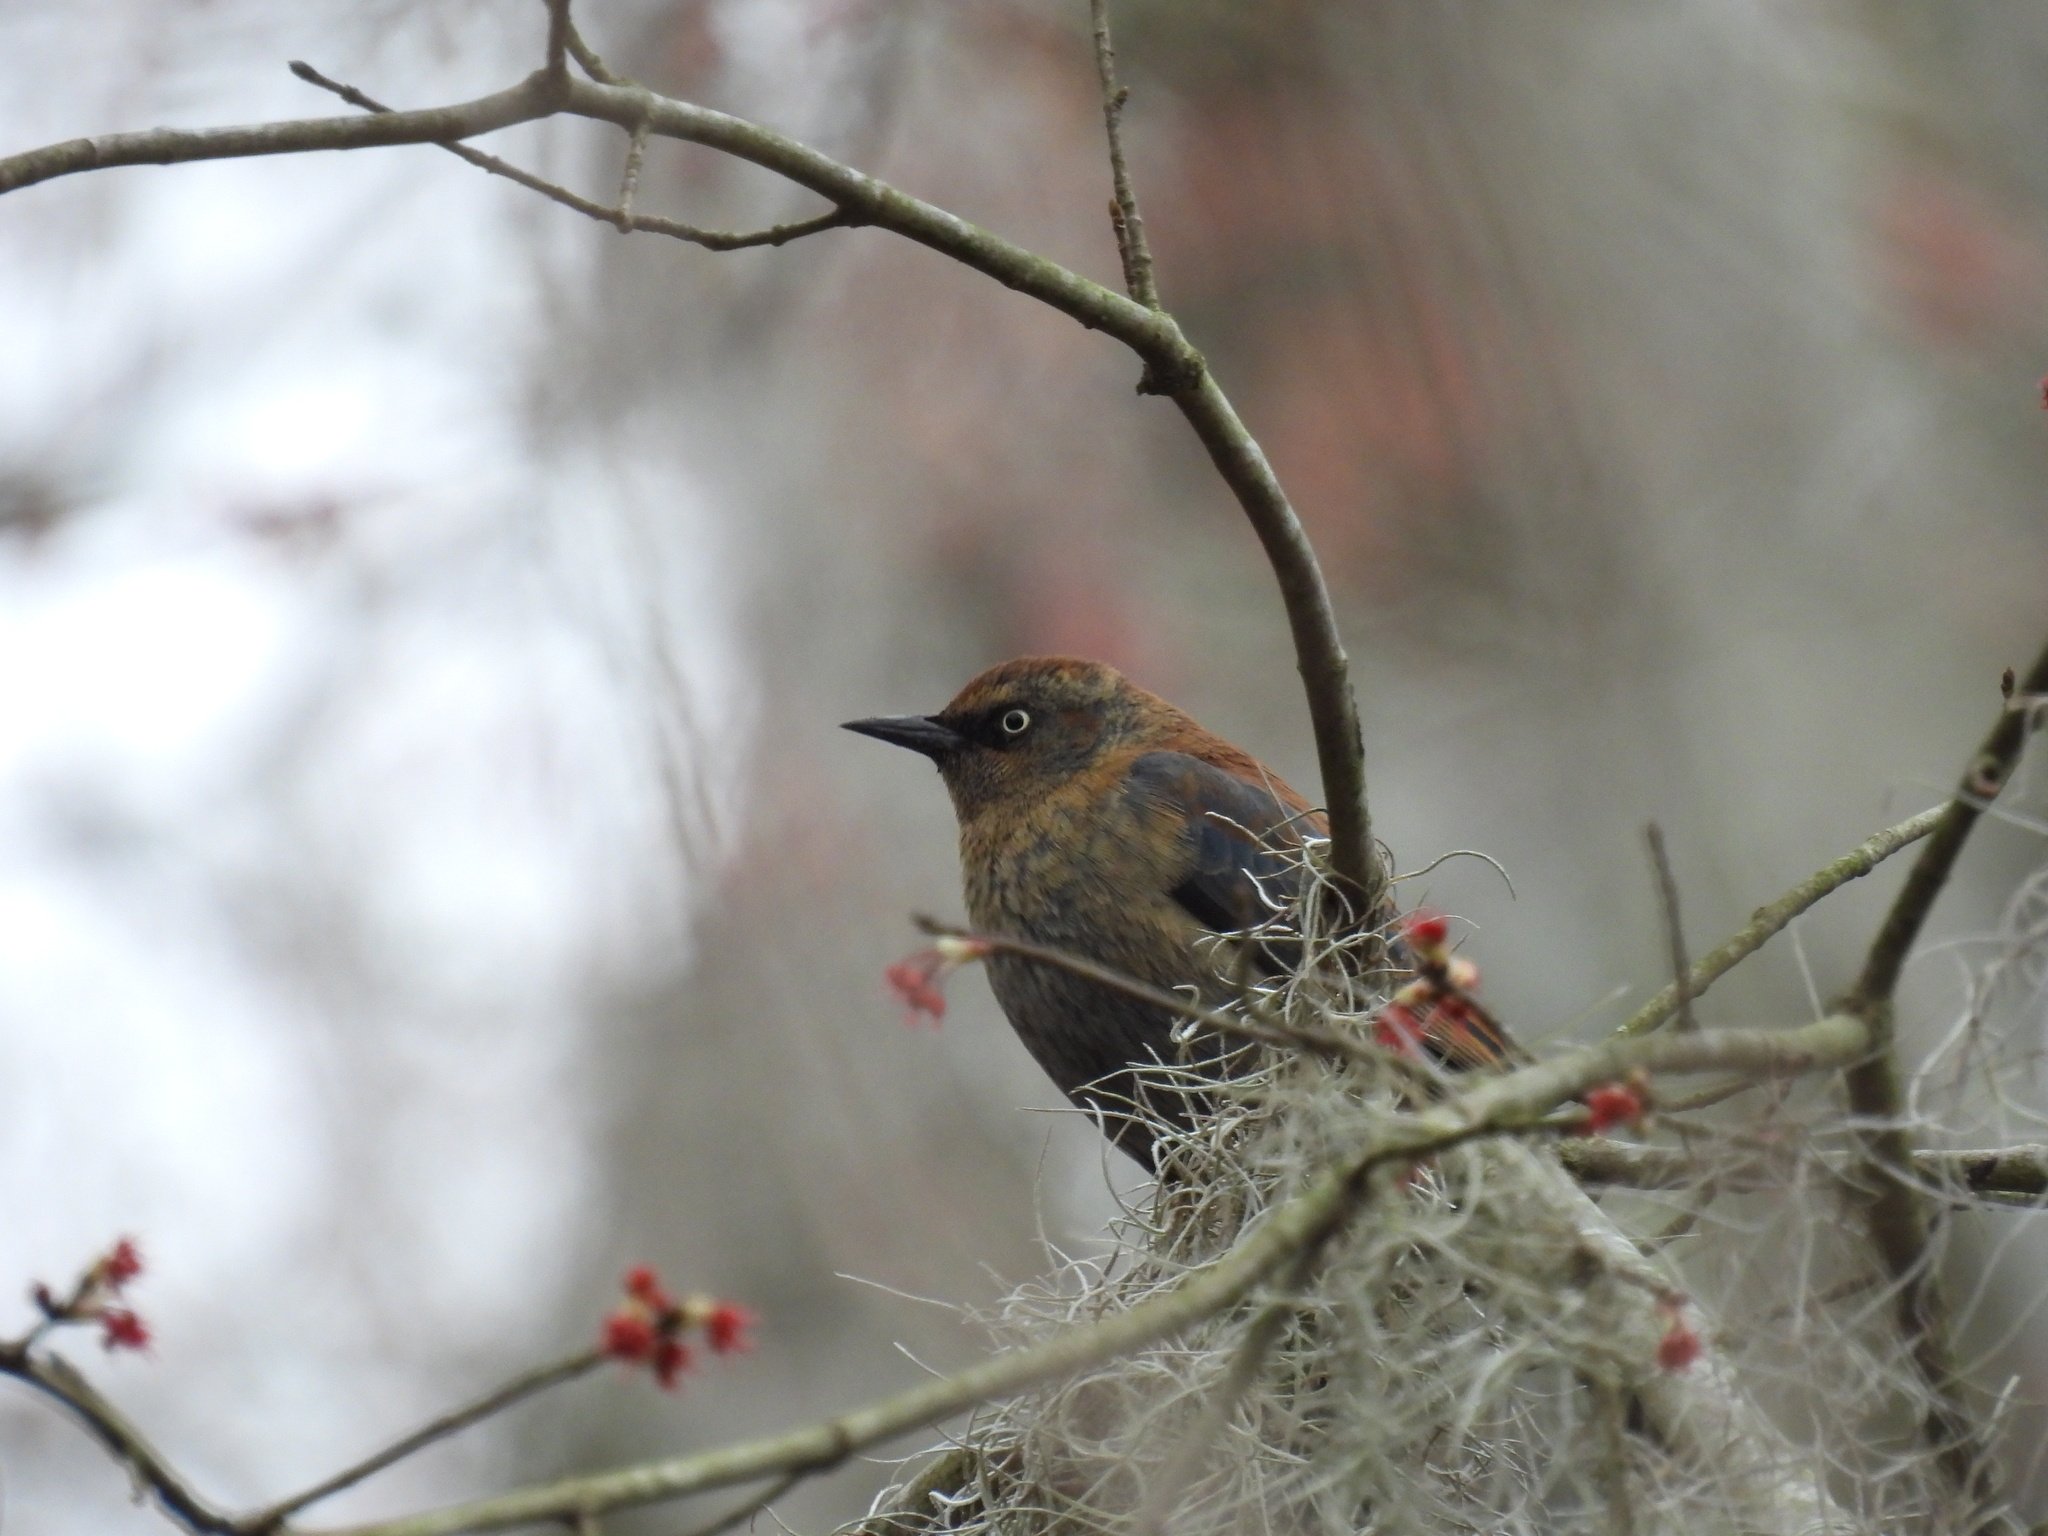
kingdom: Animalia
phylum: Chordata
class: Aves
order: Passeriformes
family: Icteridae
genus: Euphagus
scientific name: Euphagus carolinus
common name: Rusty blackbird
